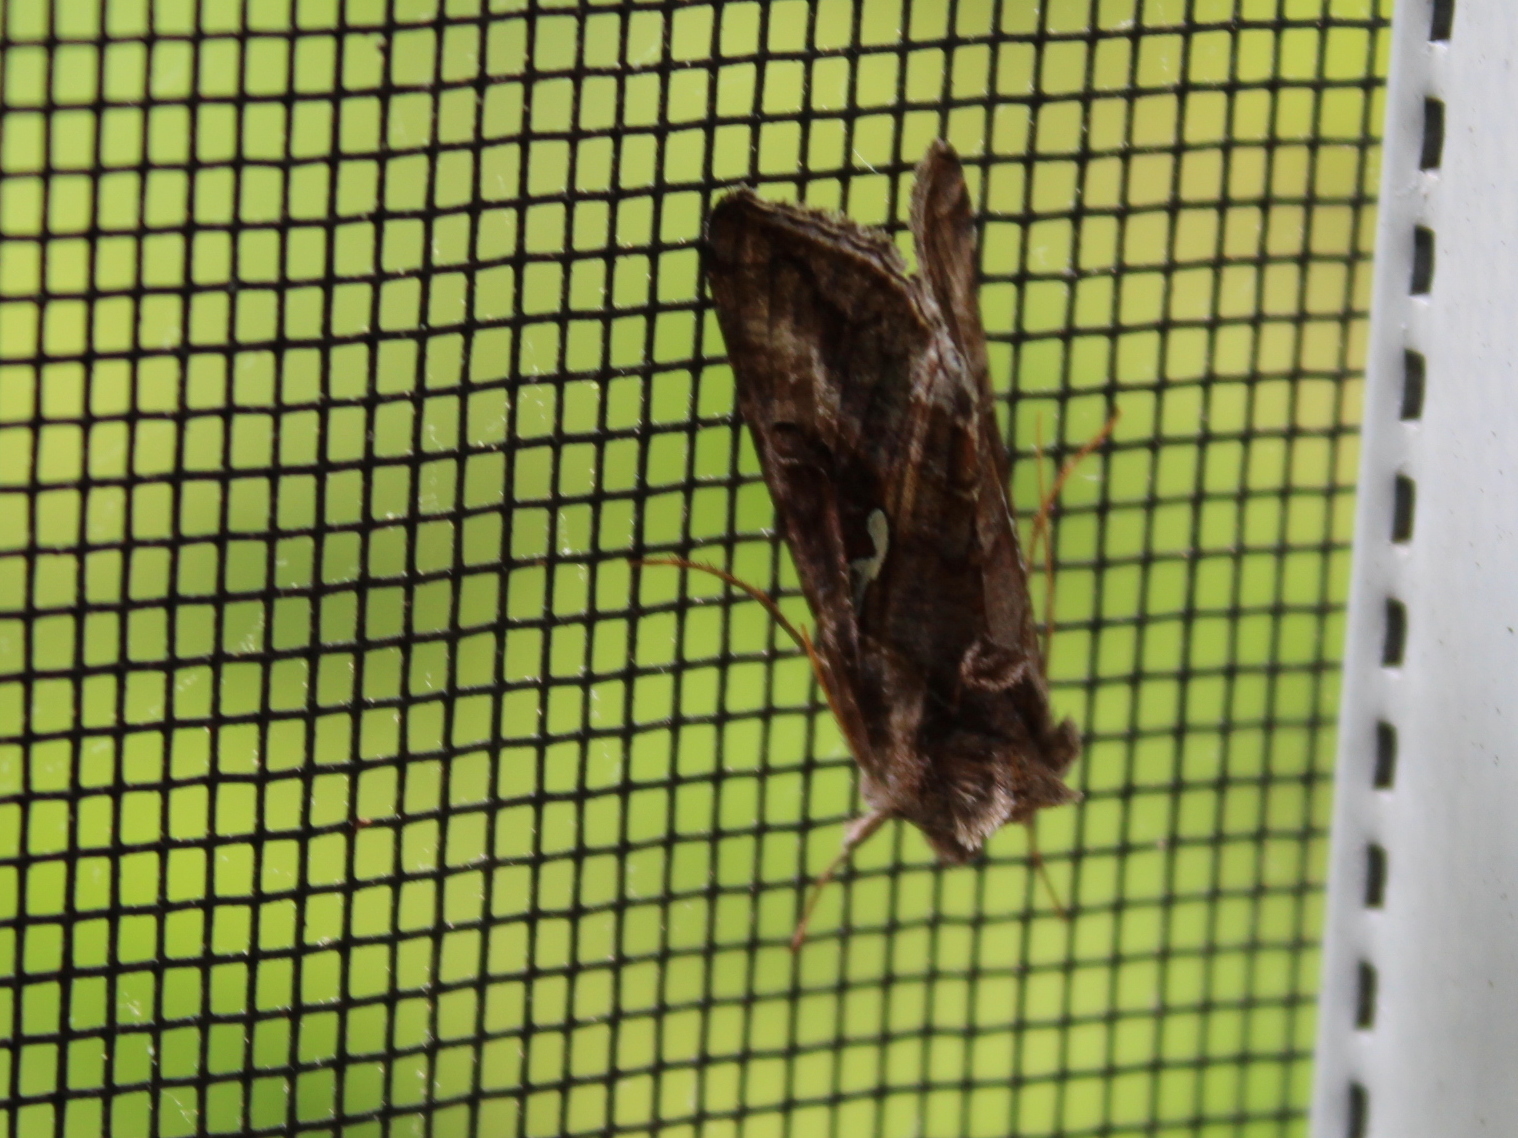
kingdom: Animalia
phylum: Arthropoda
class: Insecta
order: Lepidoptera
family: Noctuidae
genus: Autographa
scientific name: Autographa precationis
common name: Common looper moth
